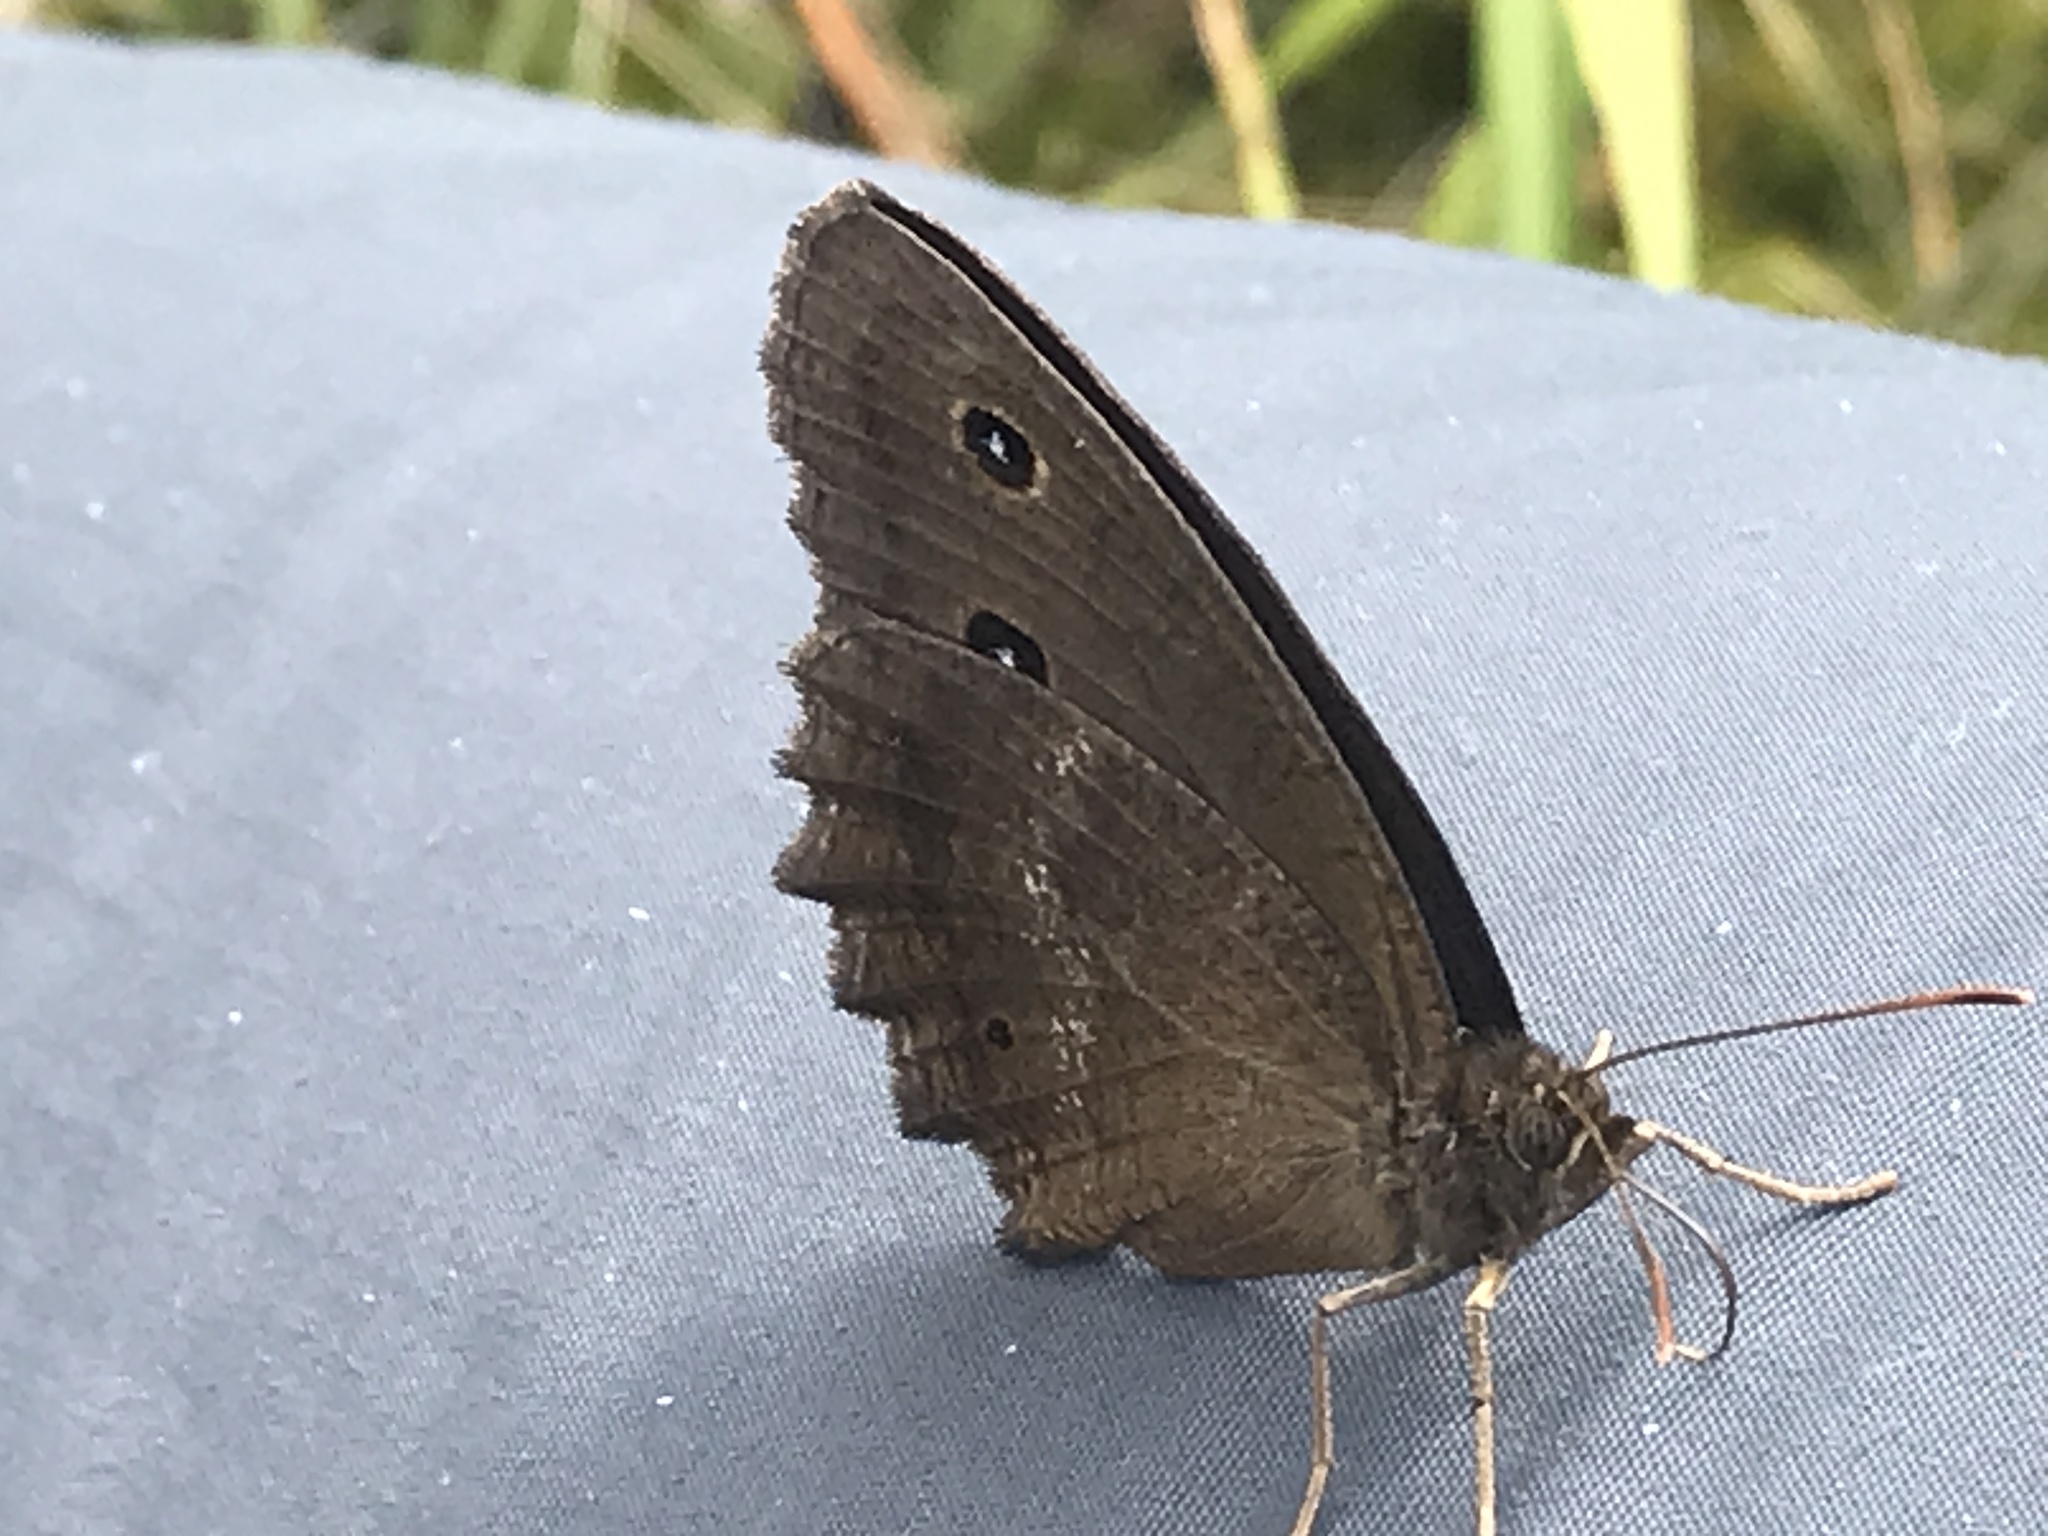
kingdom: Animalia
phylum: Arthropoda
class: Insecta
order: Lepidoptera
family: Nymphalidae
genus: Minois
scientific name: Minois dryas
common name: Dryad
